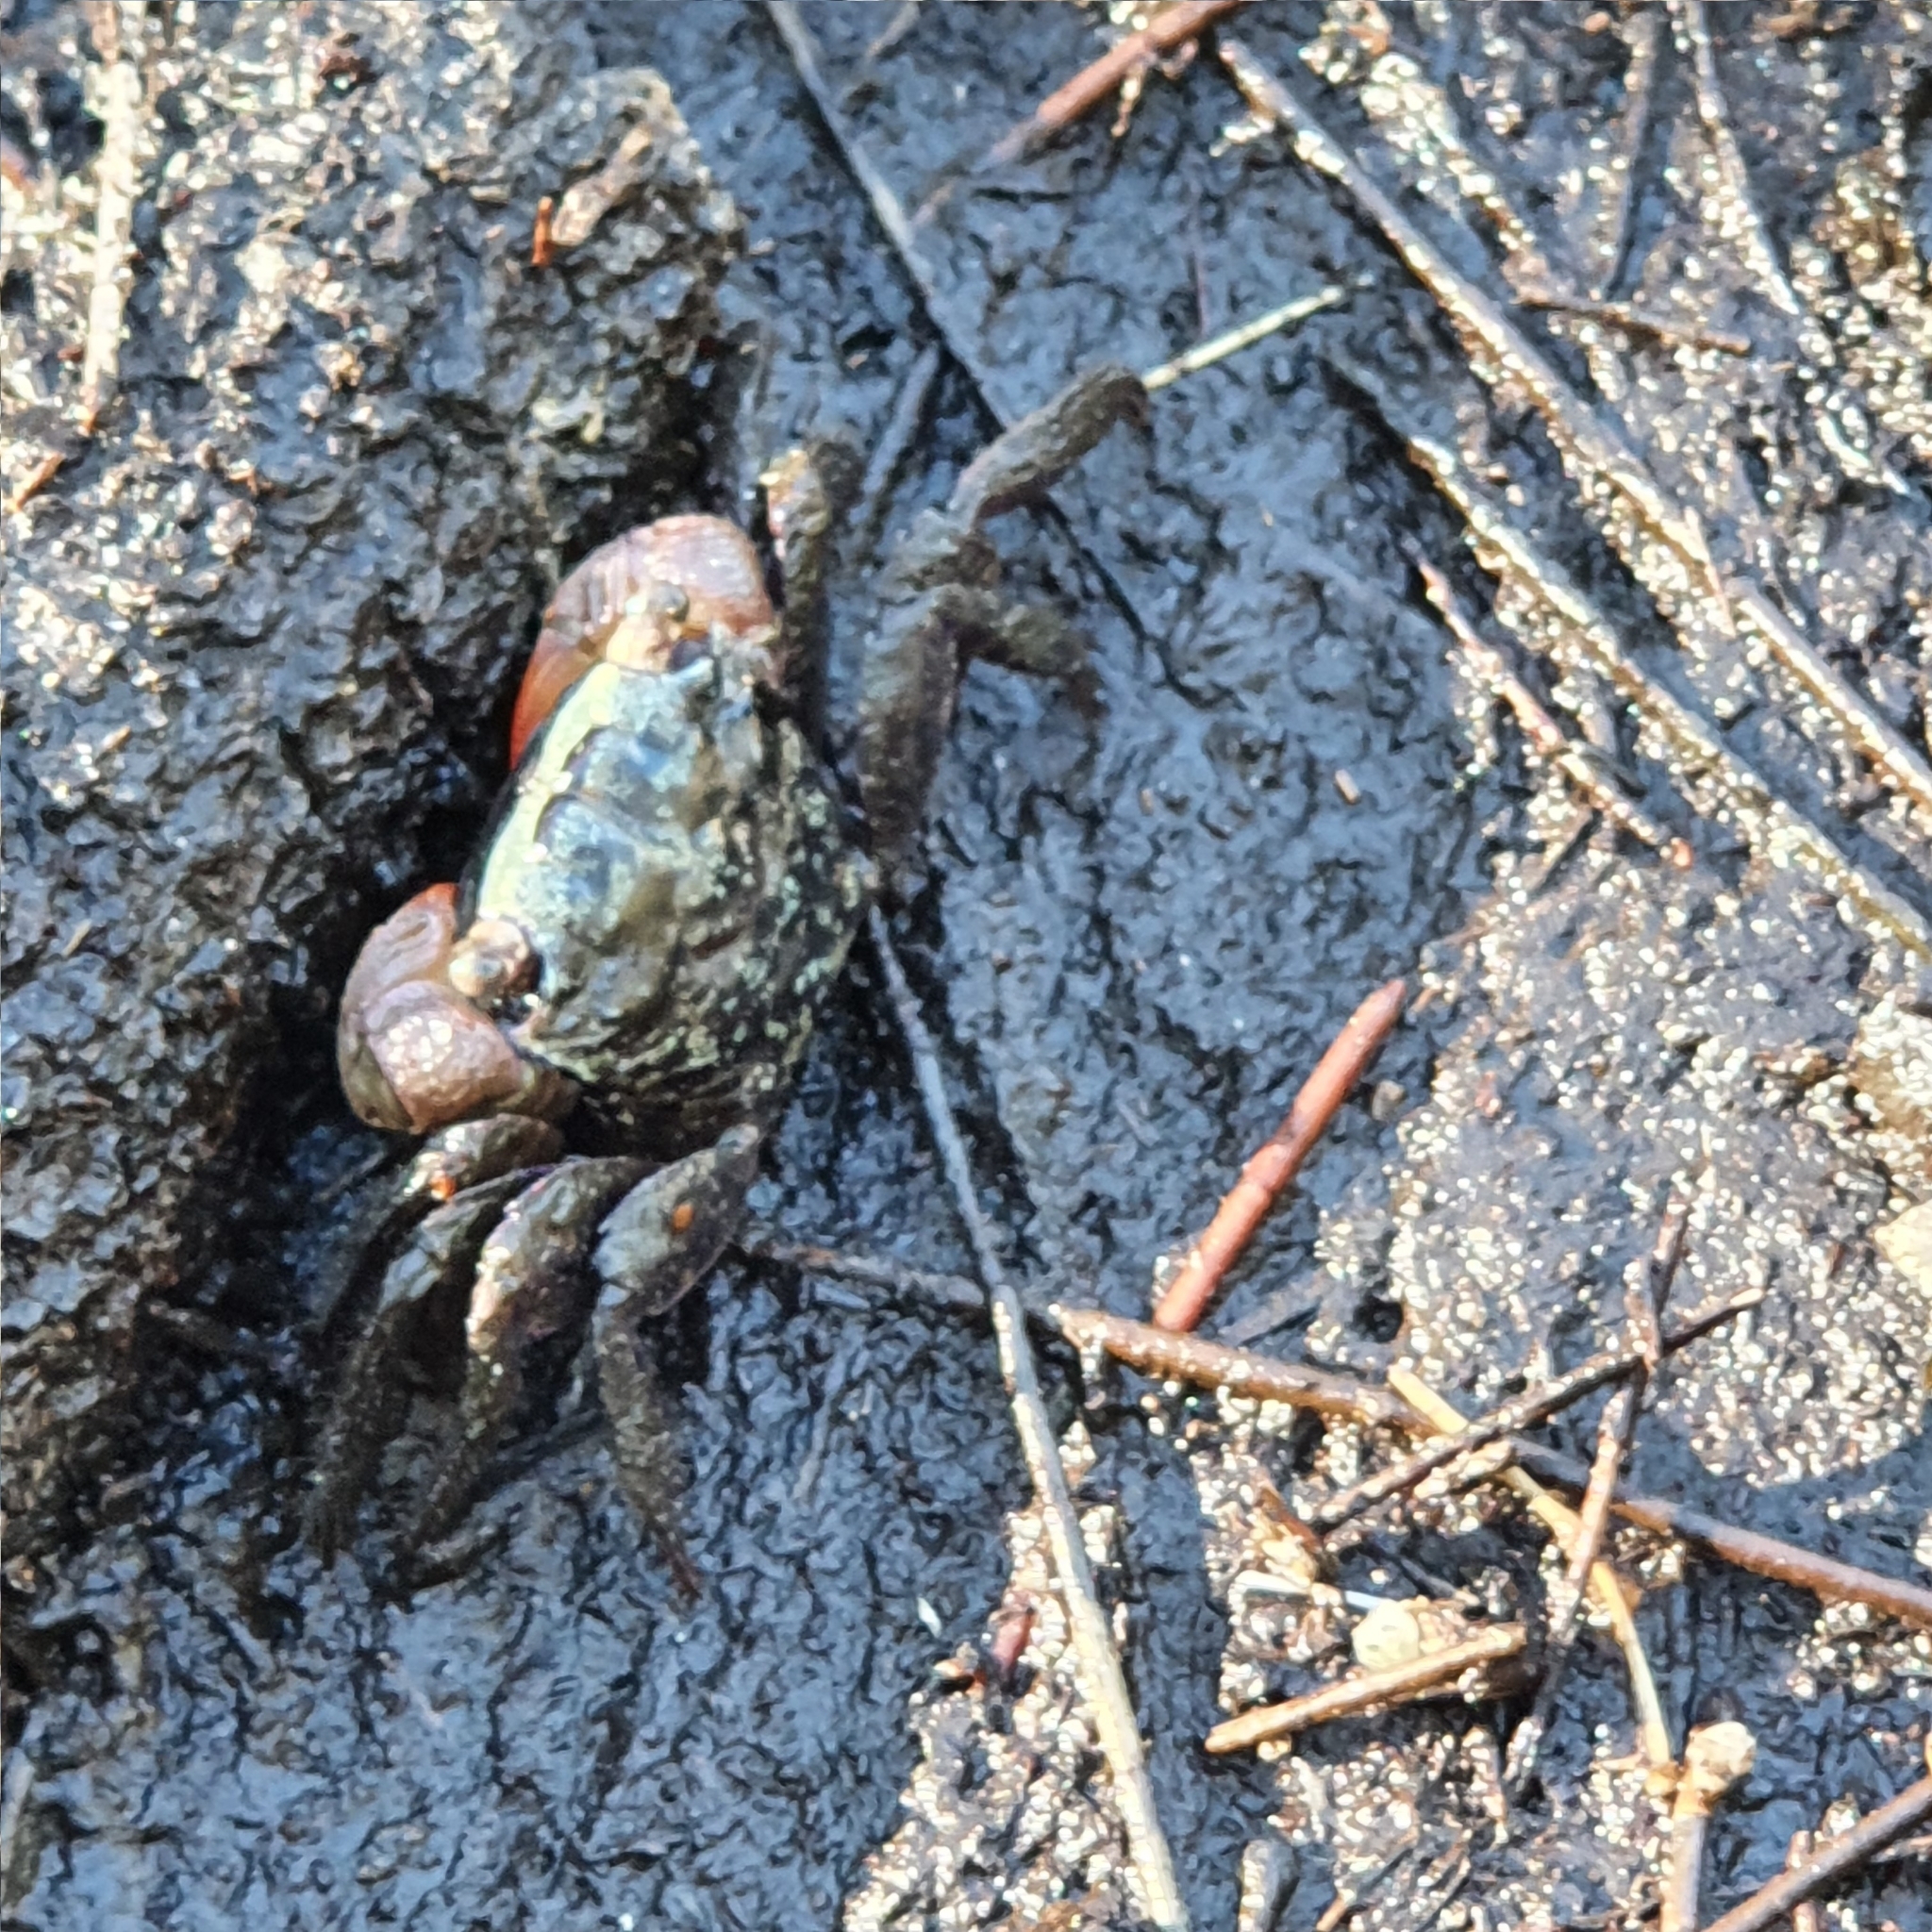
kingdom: Animalia
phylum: Arthropoda
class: Malacostraca
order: Decapoda
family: Sesarmidae
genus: Parasesarma
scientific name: Parasesarma erythodactylum
